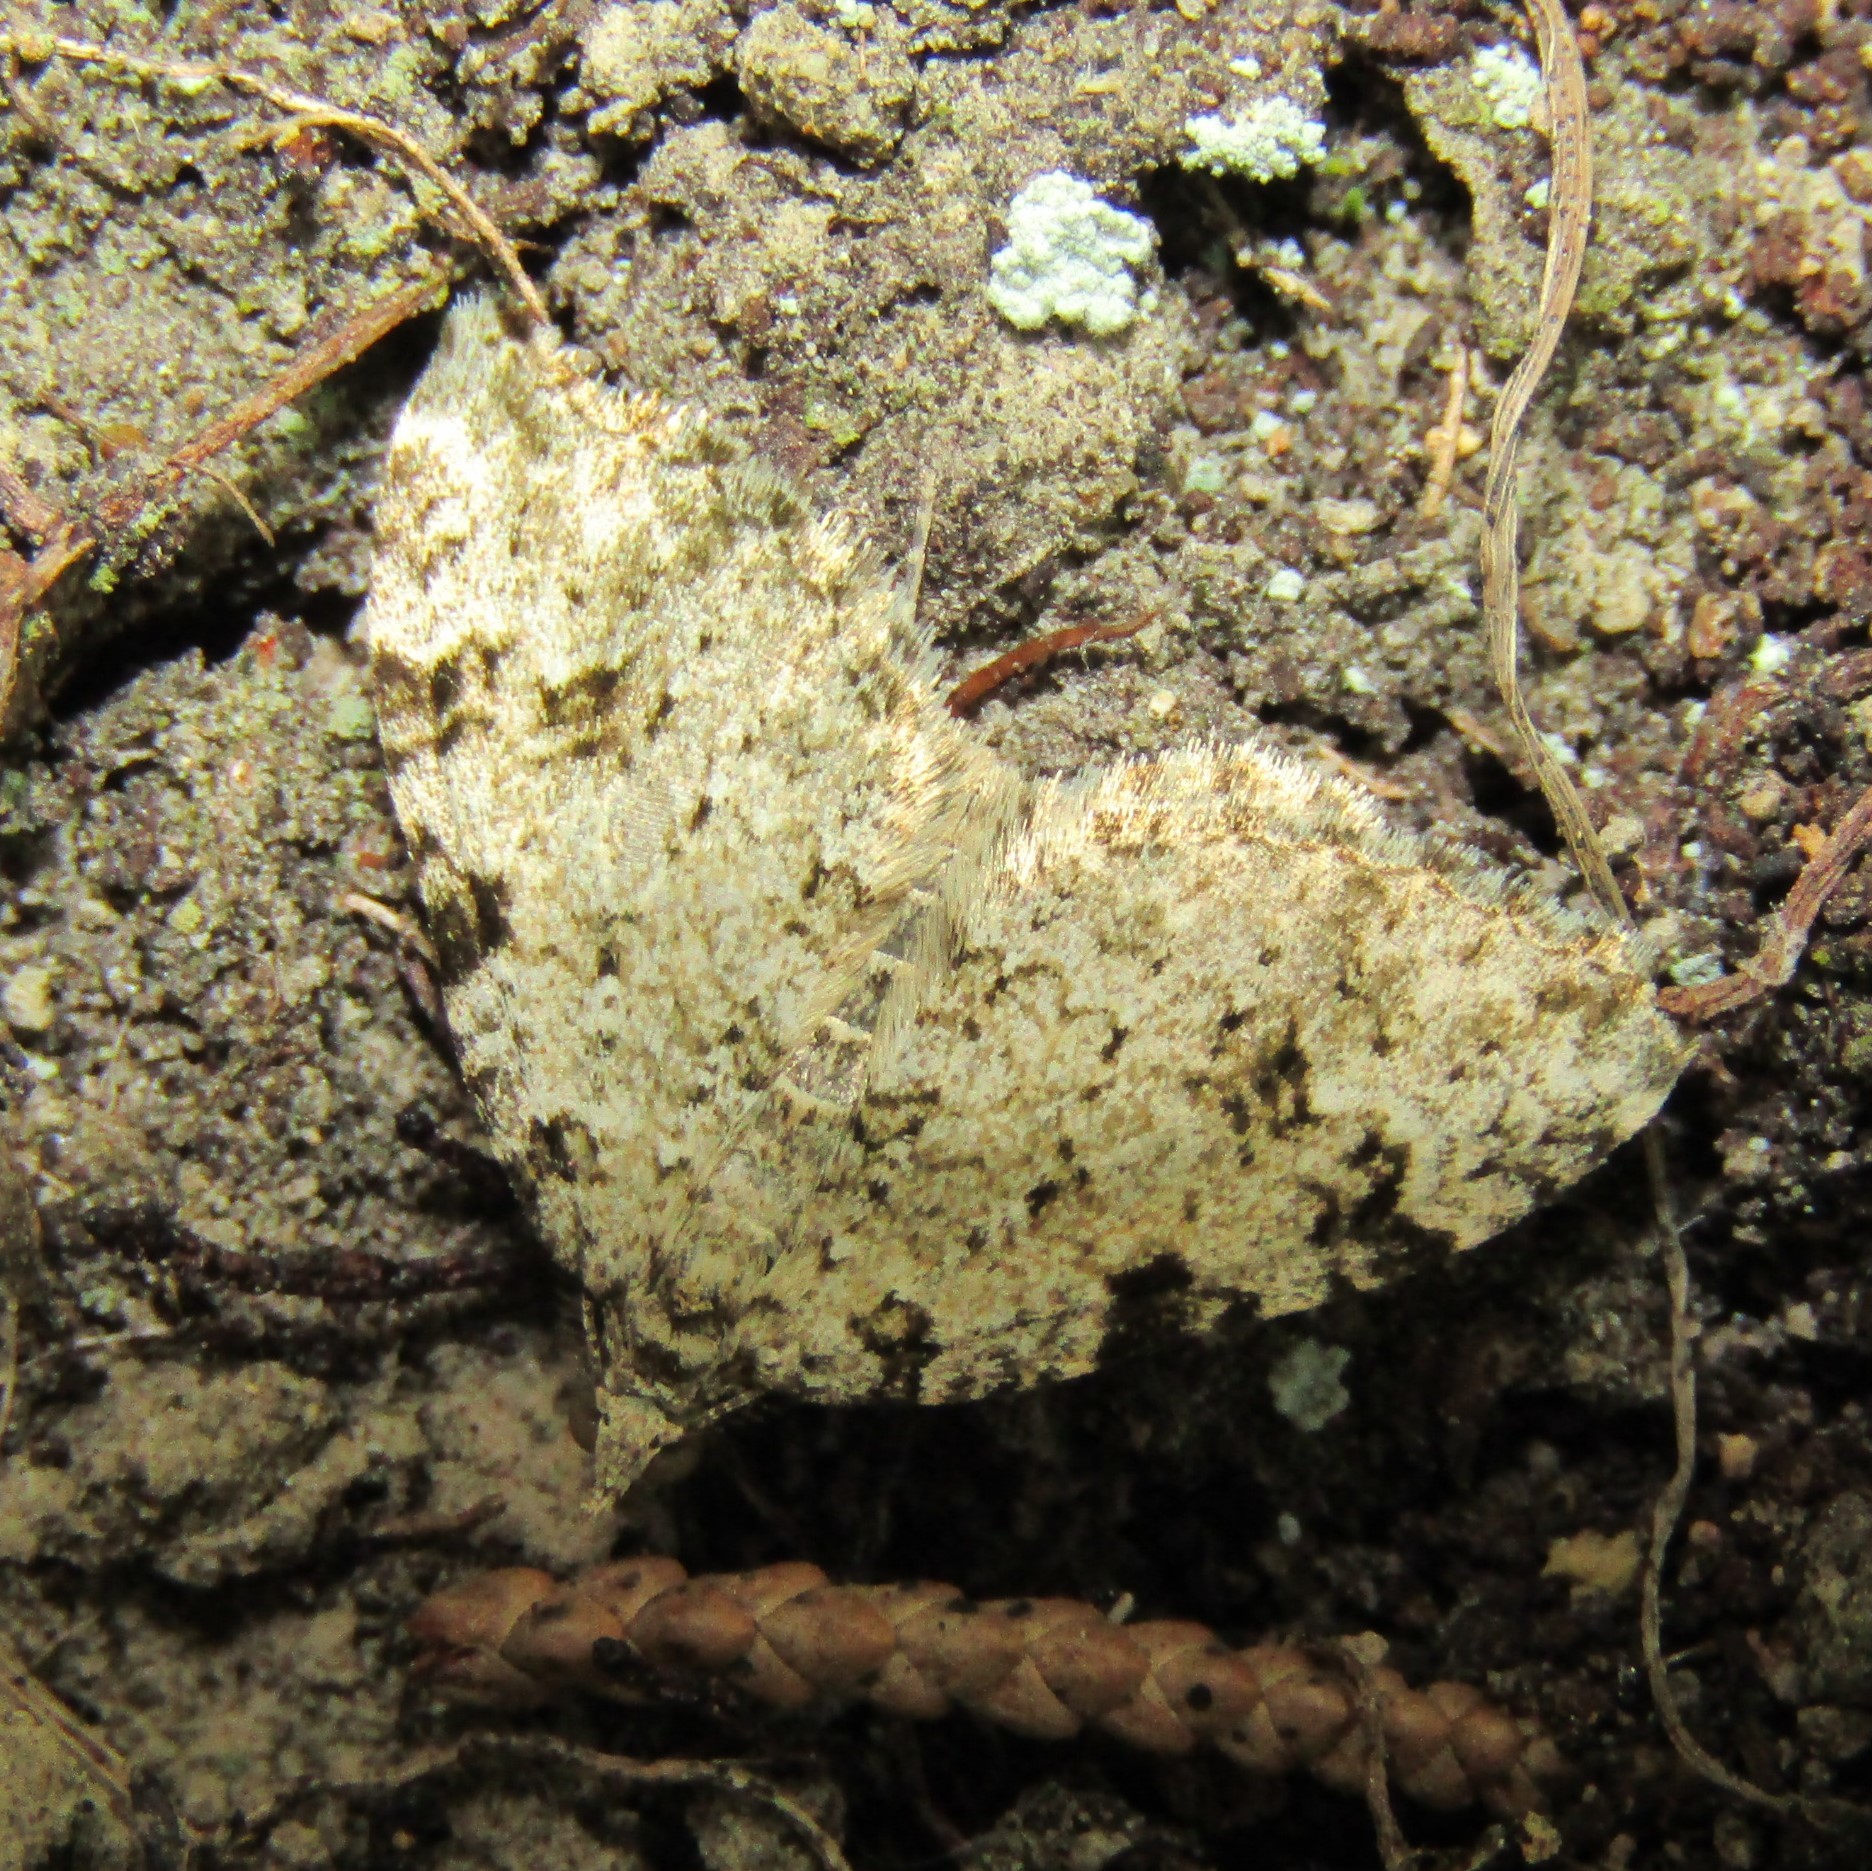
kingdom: Animalia
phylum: Arthropoda
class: Insecta
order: Lepidoptera
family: Geometridae
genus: Helastia
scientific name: Helastia cinerearia
